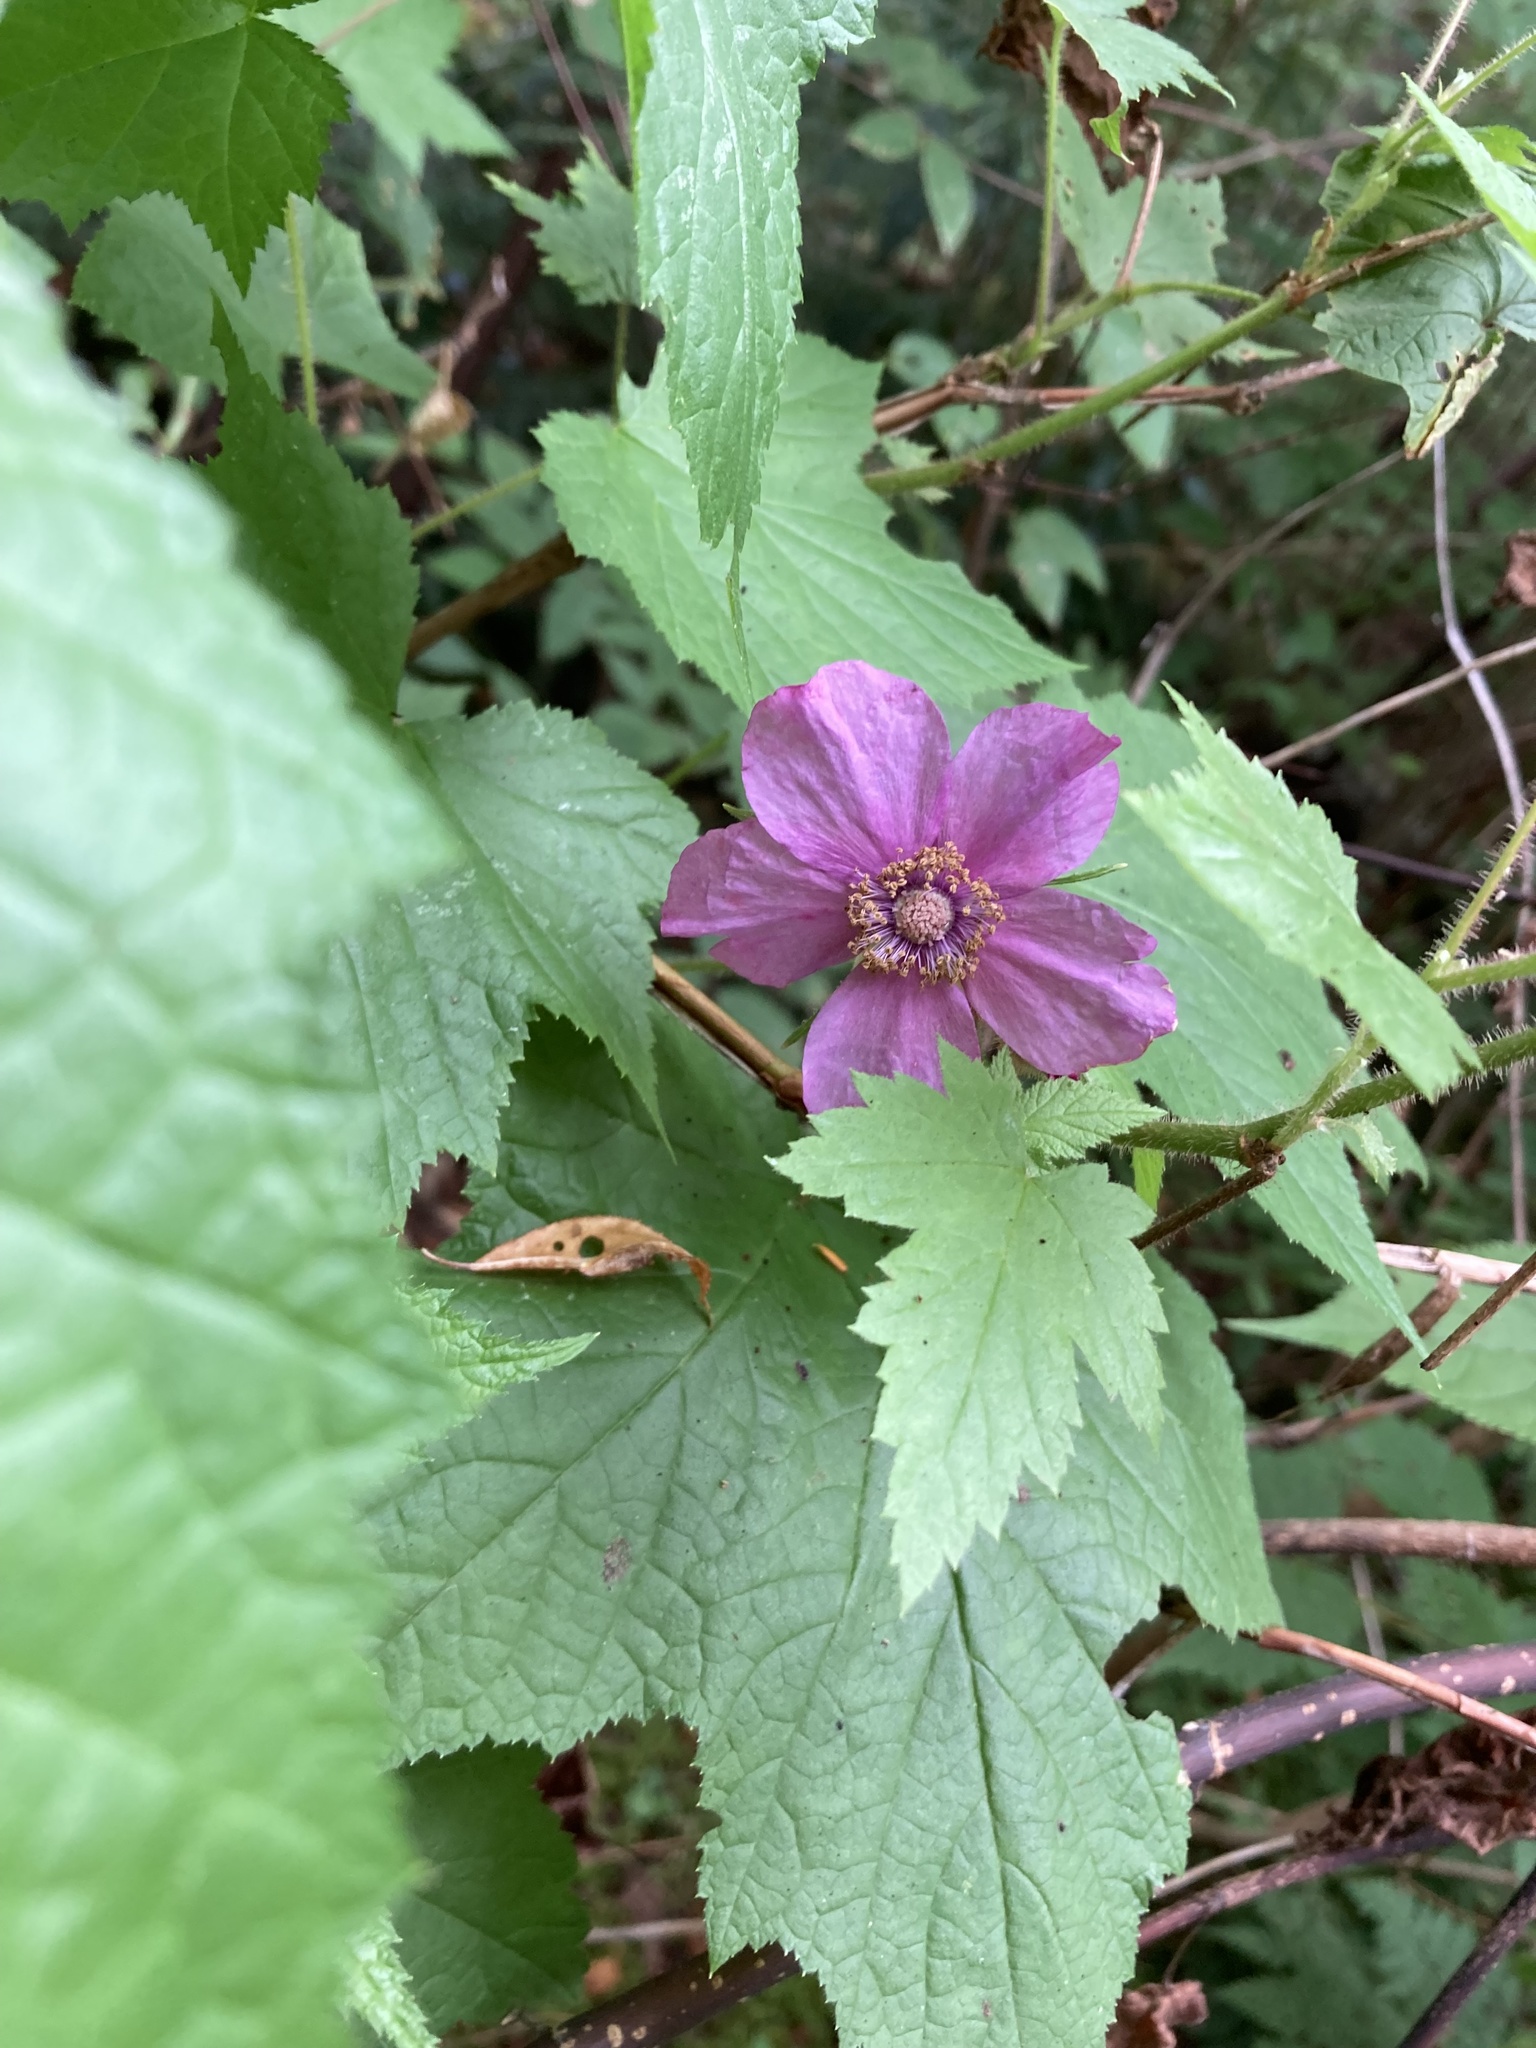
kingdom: Plantae
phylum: Tracheophyta
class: Magnoliopsida
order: Rosales
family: Rosaceae
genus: Rubus
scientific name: Rubus odoratus
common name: Purple-flowered raspberry
